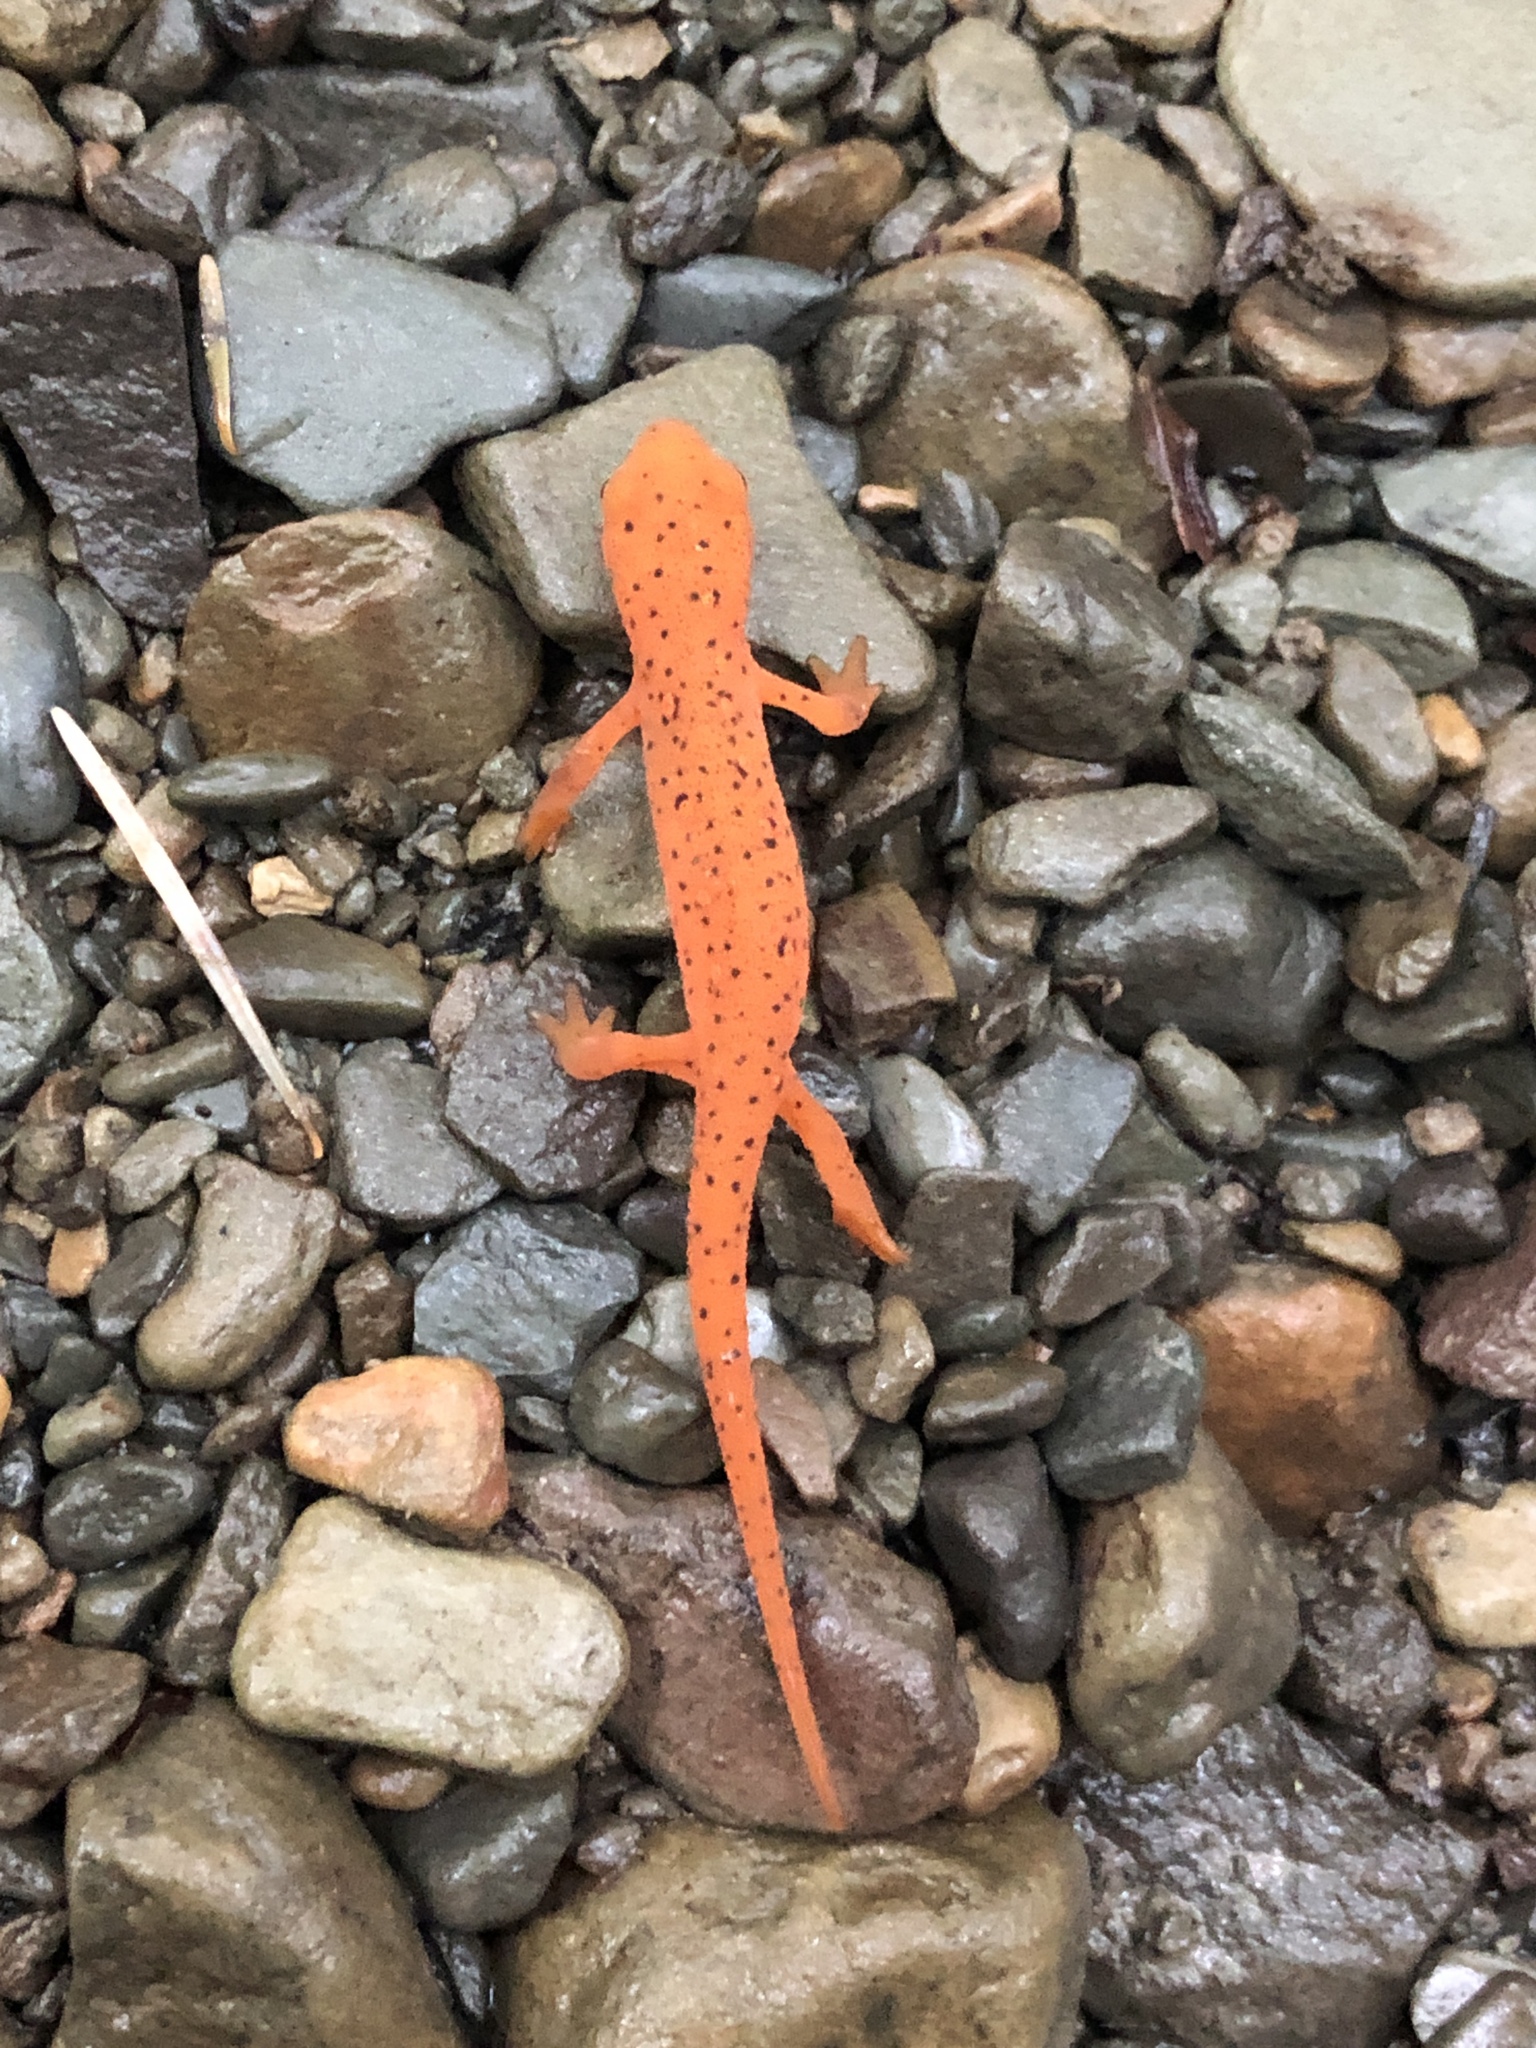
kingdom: Animalia
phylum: Chordata
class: Amphibia
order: Caudata
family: Salamandridae
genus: Notophthalmus
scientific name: Notophthalmus viridescens
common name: Eastern newt
